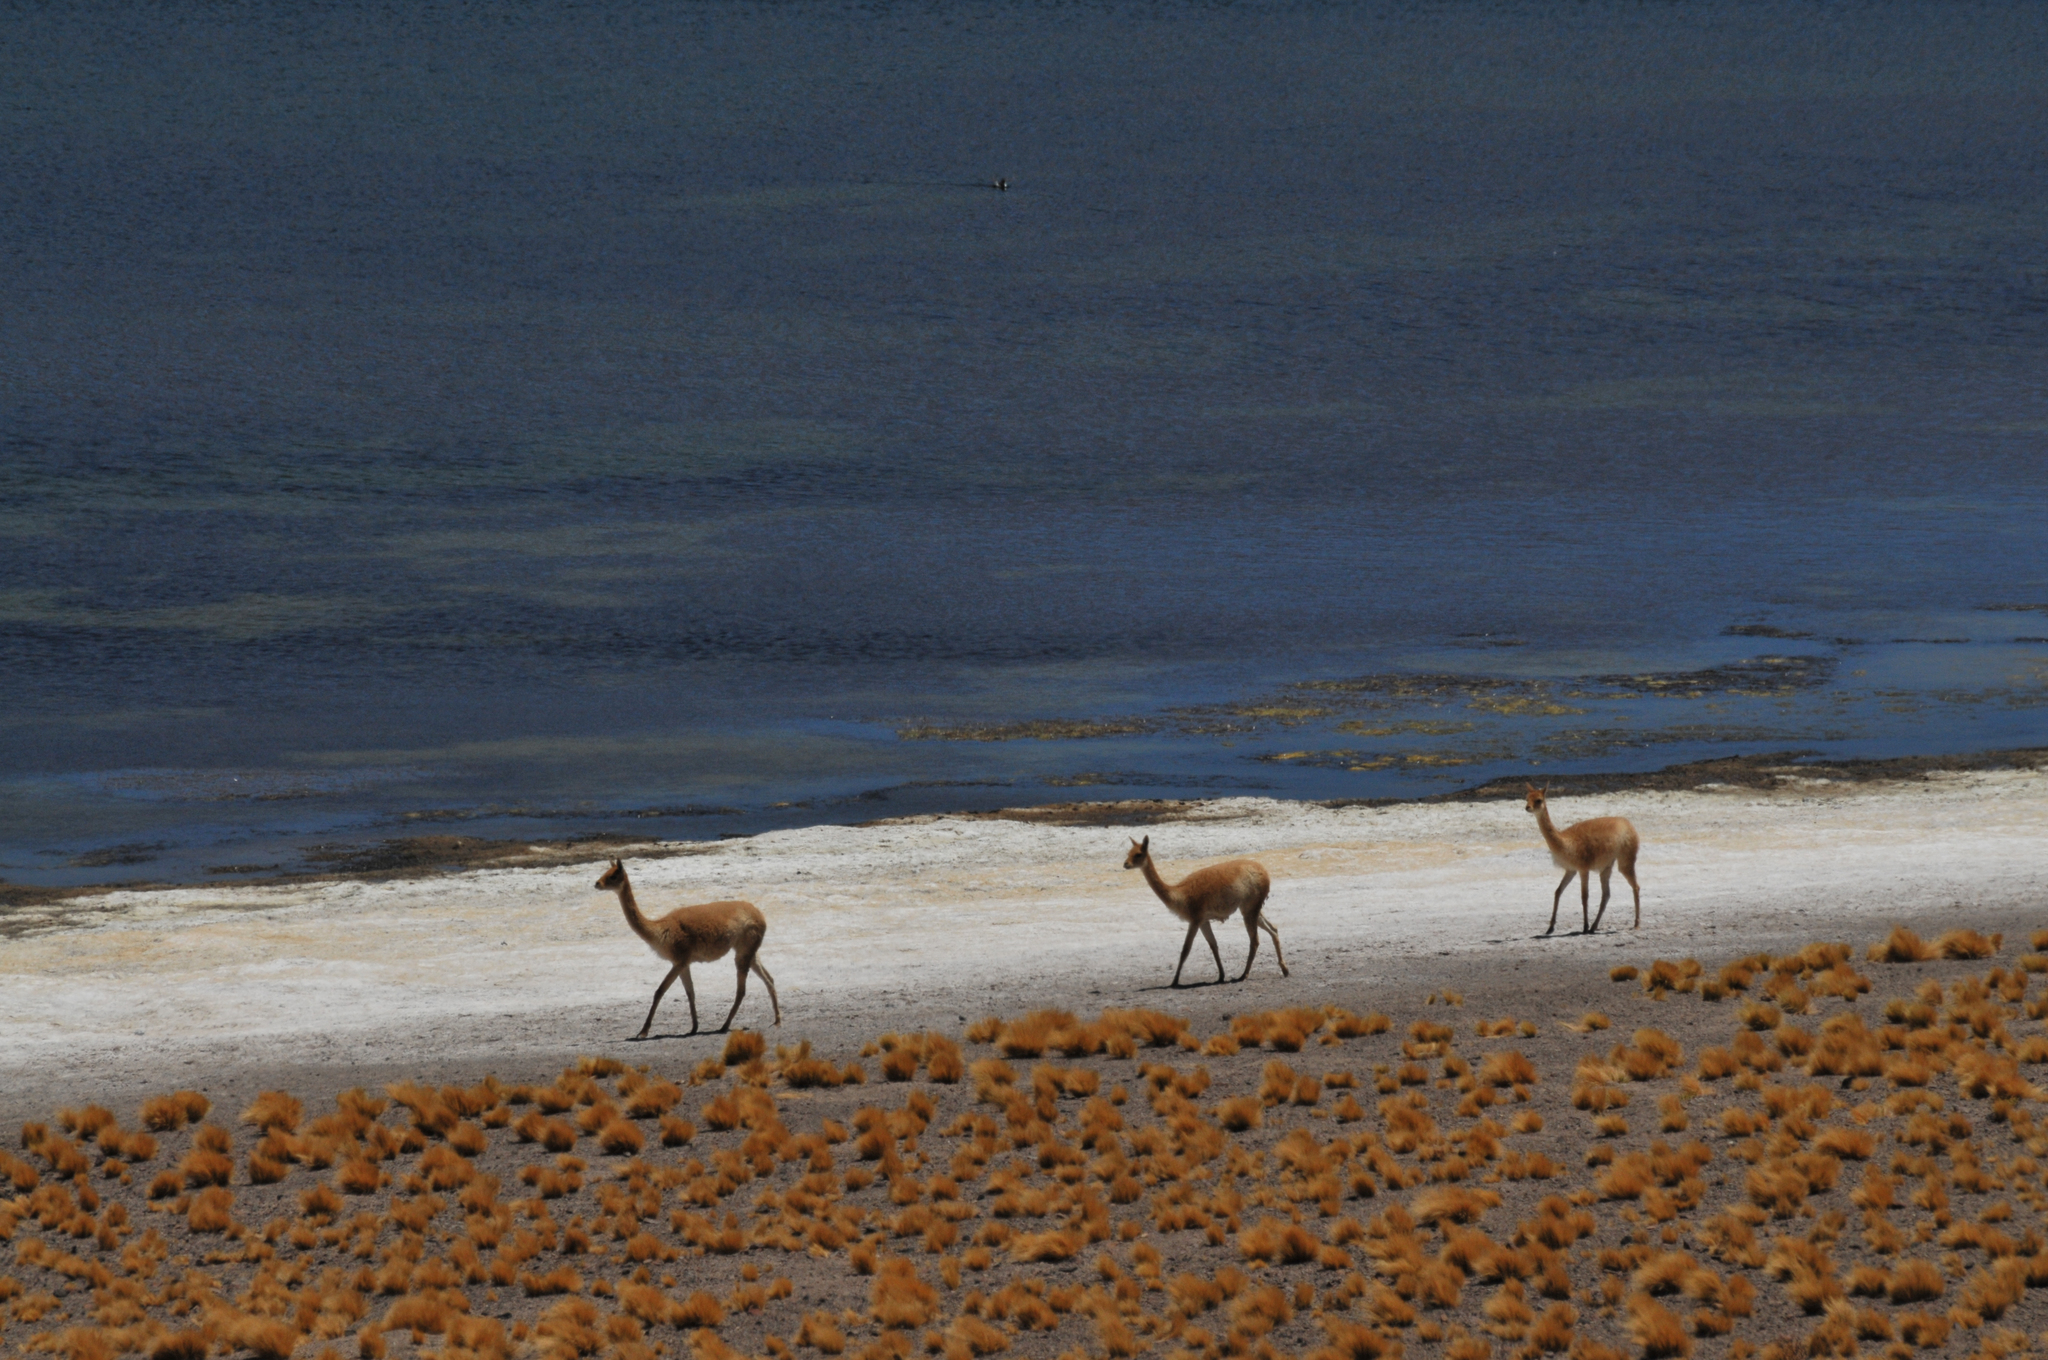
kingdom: Animalia
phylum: Chordata
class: Mammalia
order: Artiodactyla
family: Camelidae
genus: Vicugna
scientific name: Vicugna vicugna
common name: Vicugna
